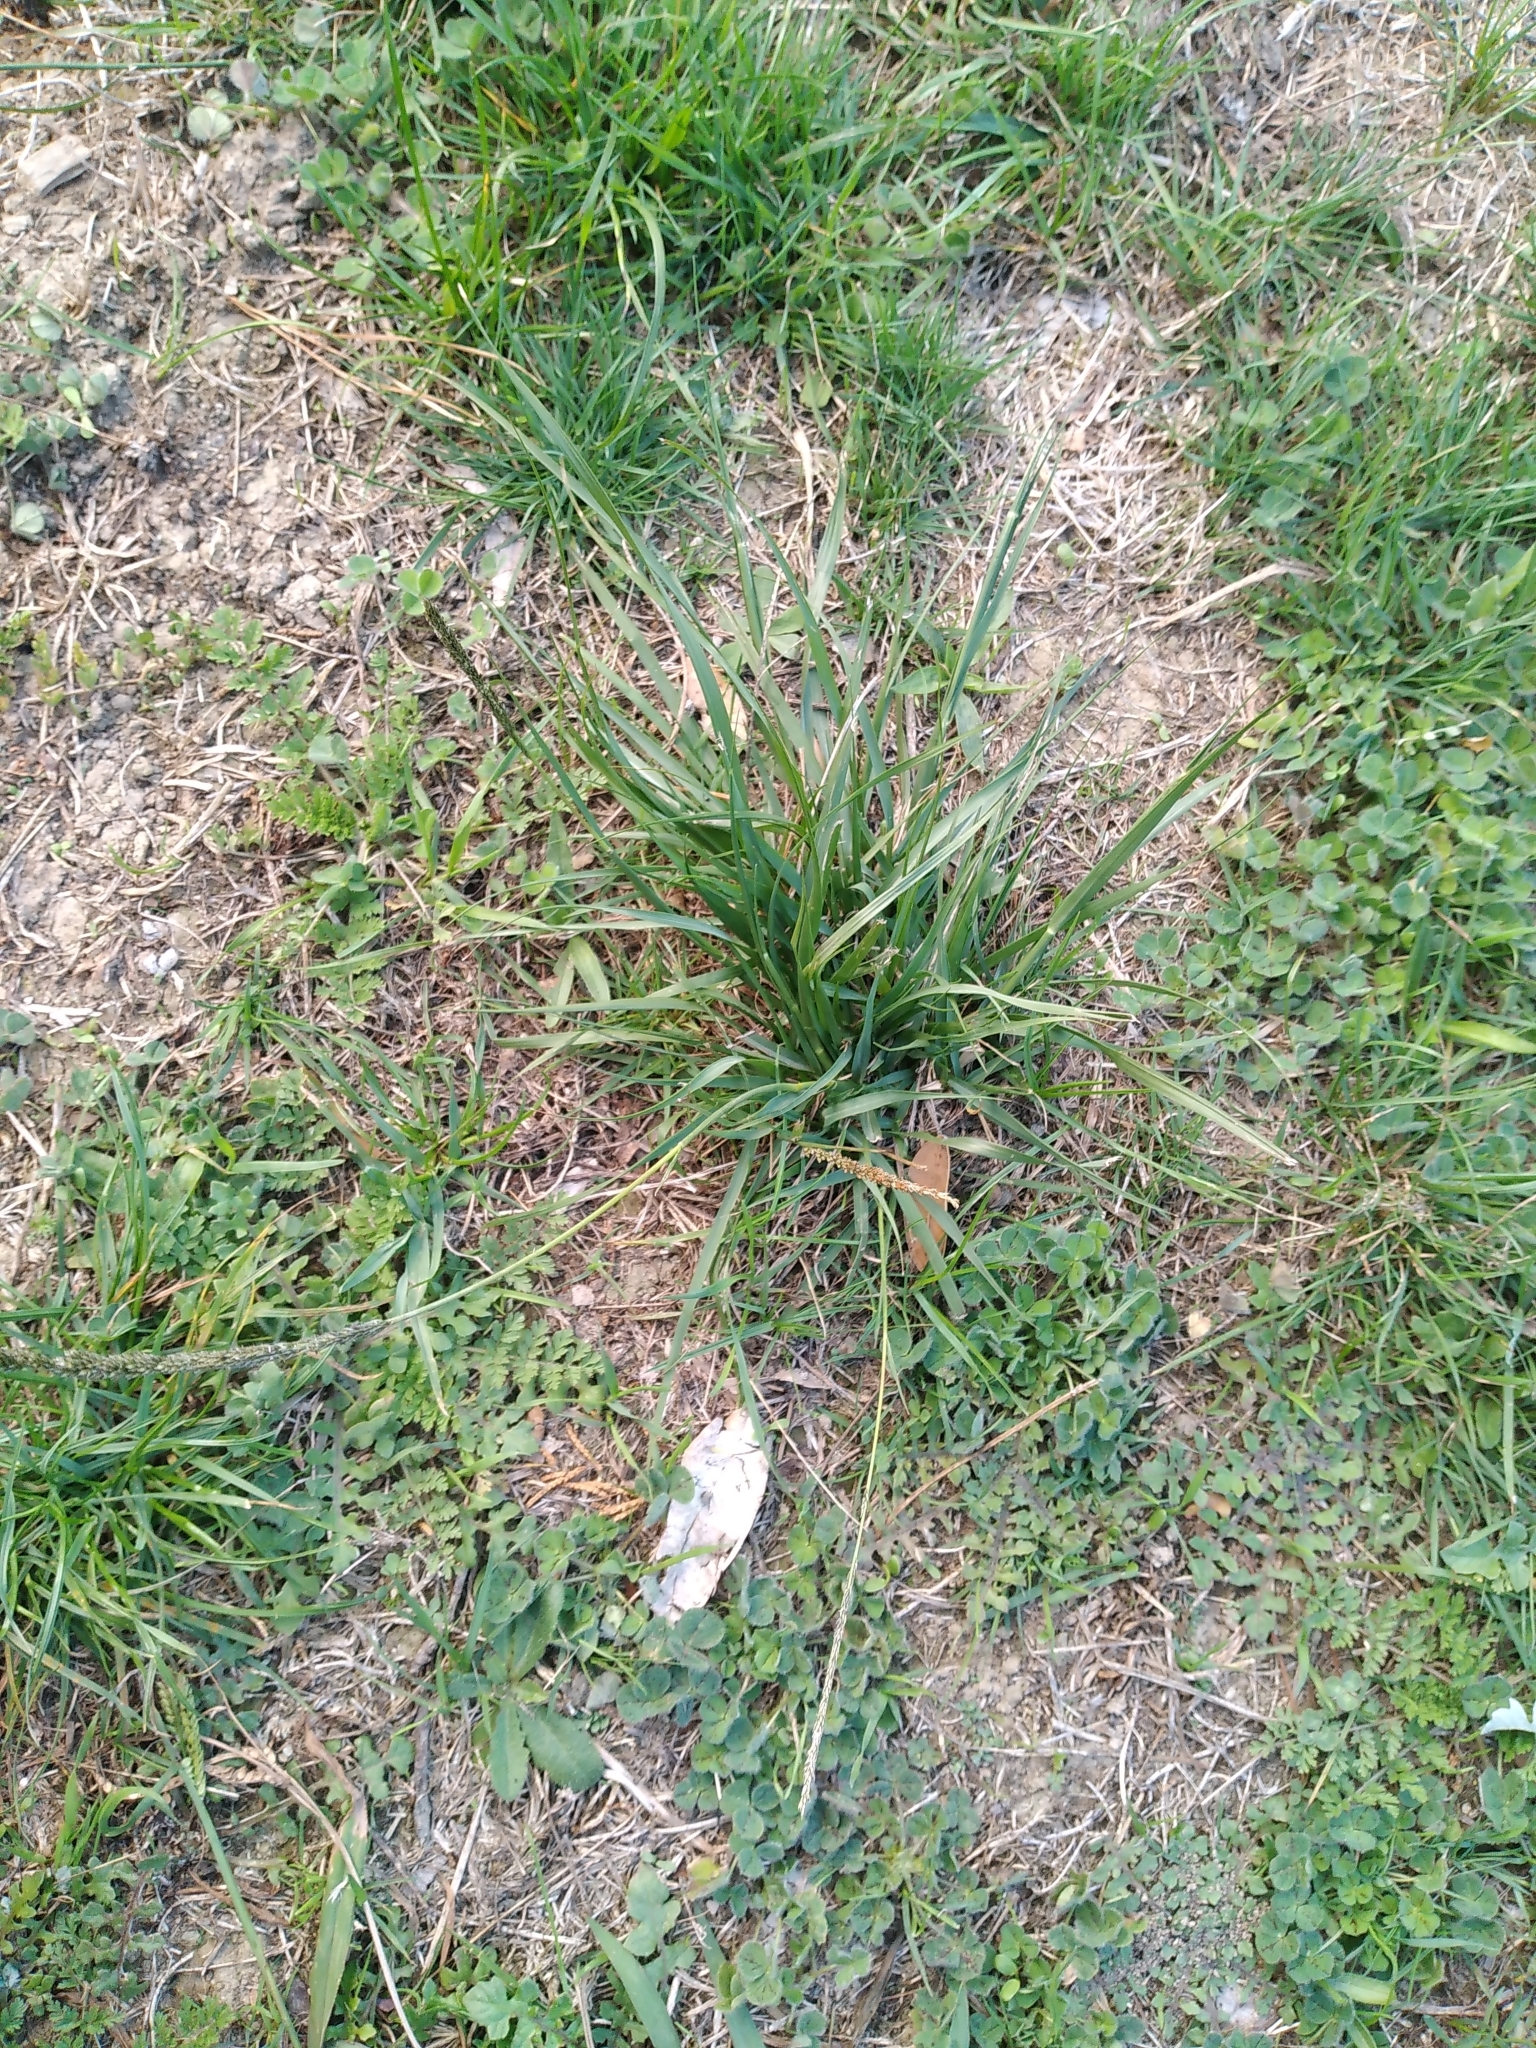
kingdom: Plantae
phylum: Tracheophyta
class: Liliopsida
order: Poales
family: Poaceae
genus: Sporobolus
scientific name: Sporobolus africanus
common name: African dropseed
